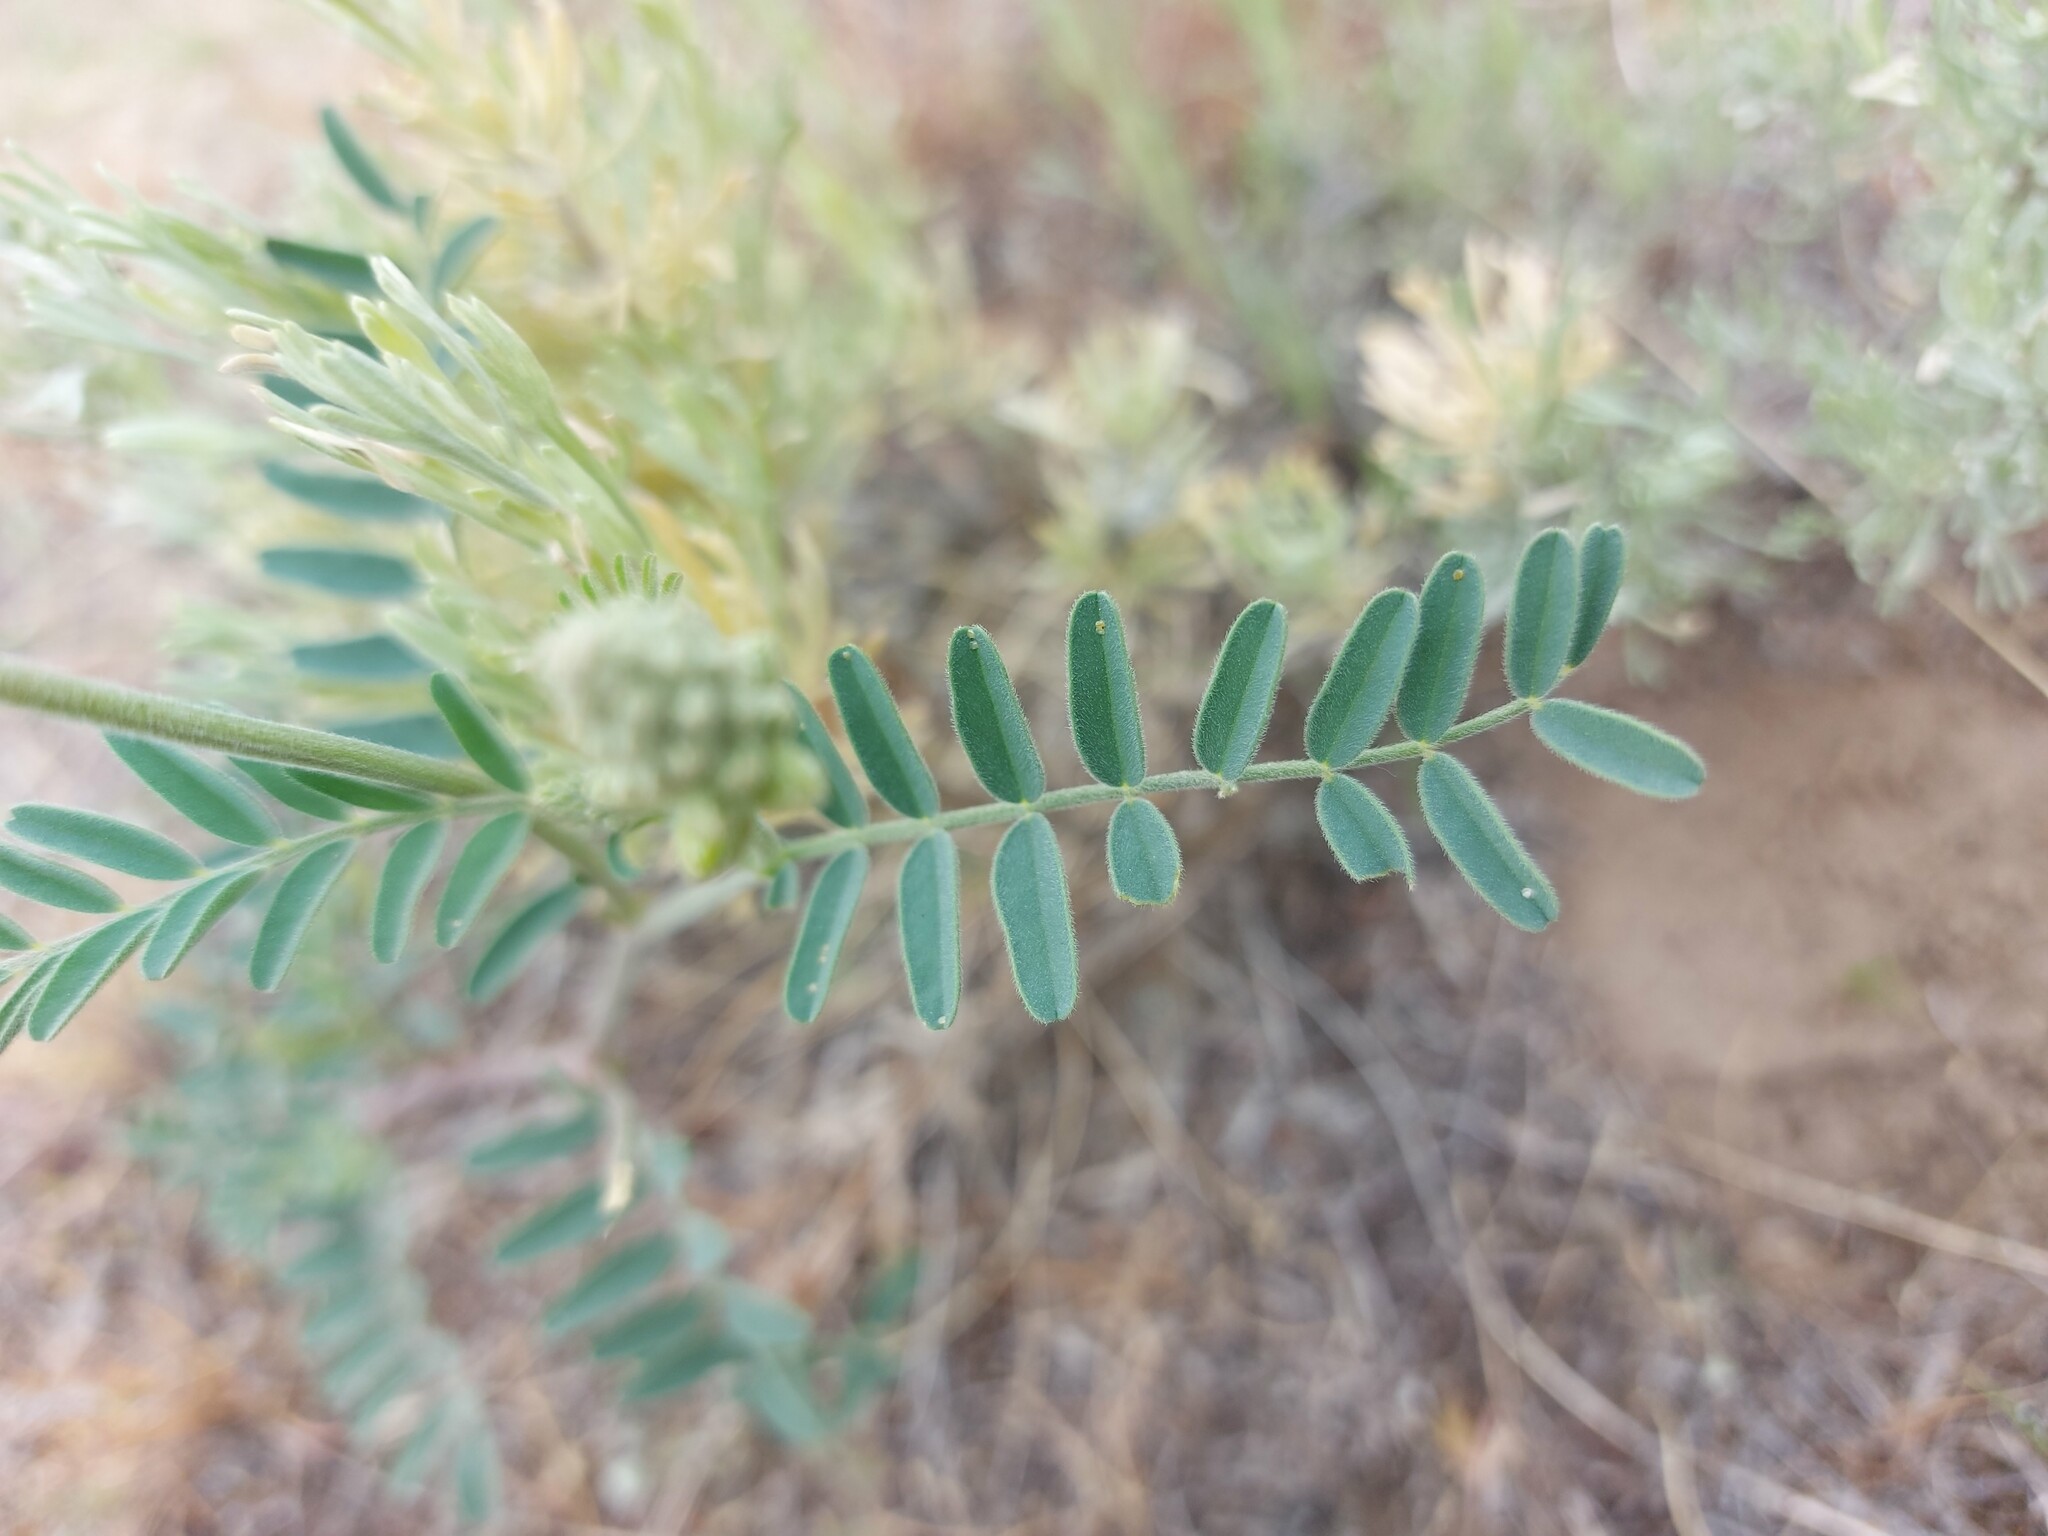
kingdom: Plantae
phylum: Tracheophyta
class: Magnoliopsida
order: Fabales
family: Fabaceae
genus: Astragalus
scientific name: Astragalus collinus
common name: Hill milk-vetch
